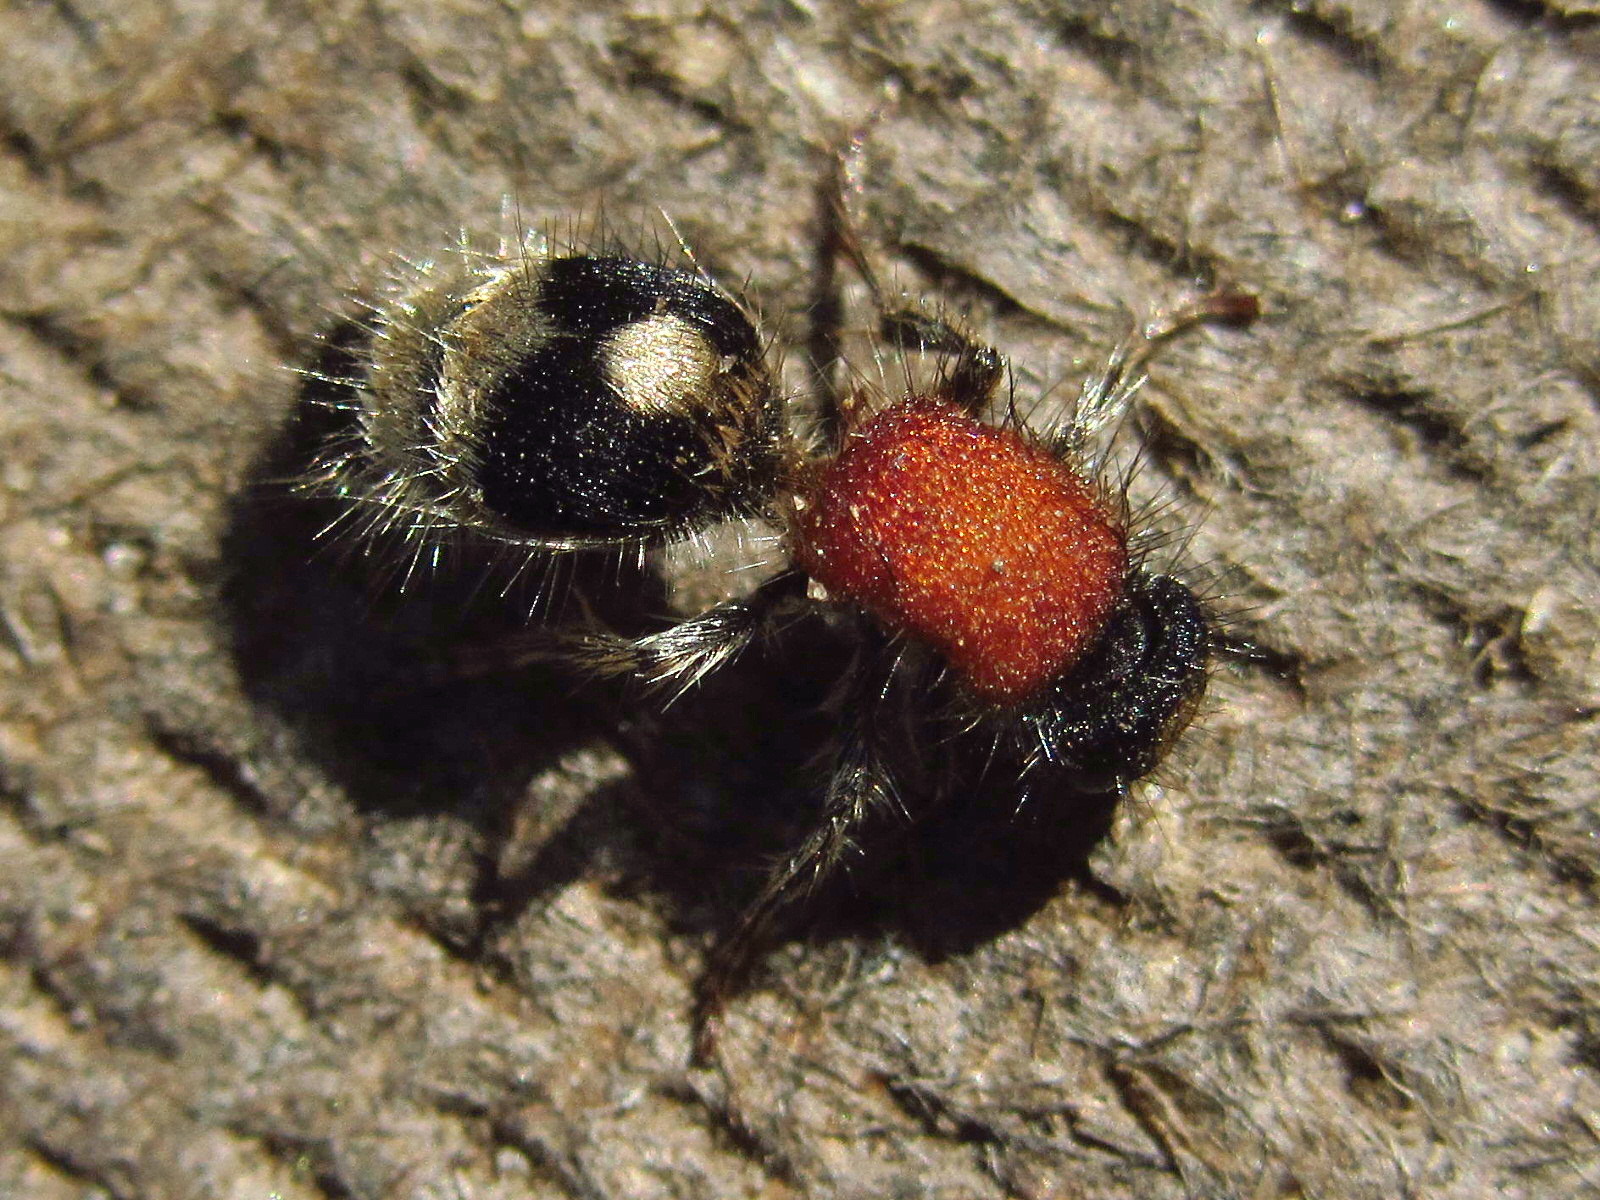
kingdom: Animalia
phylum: Arthropoda
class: Insecta
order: Hymenoptera
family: Mutillidae
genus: Nemka
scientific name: Nemka viduata
